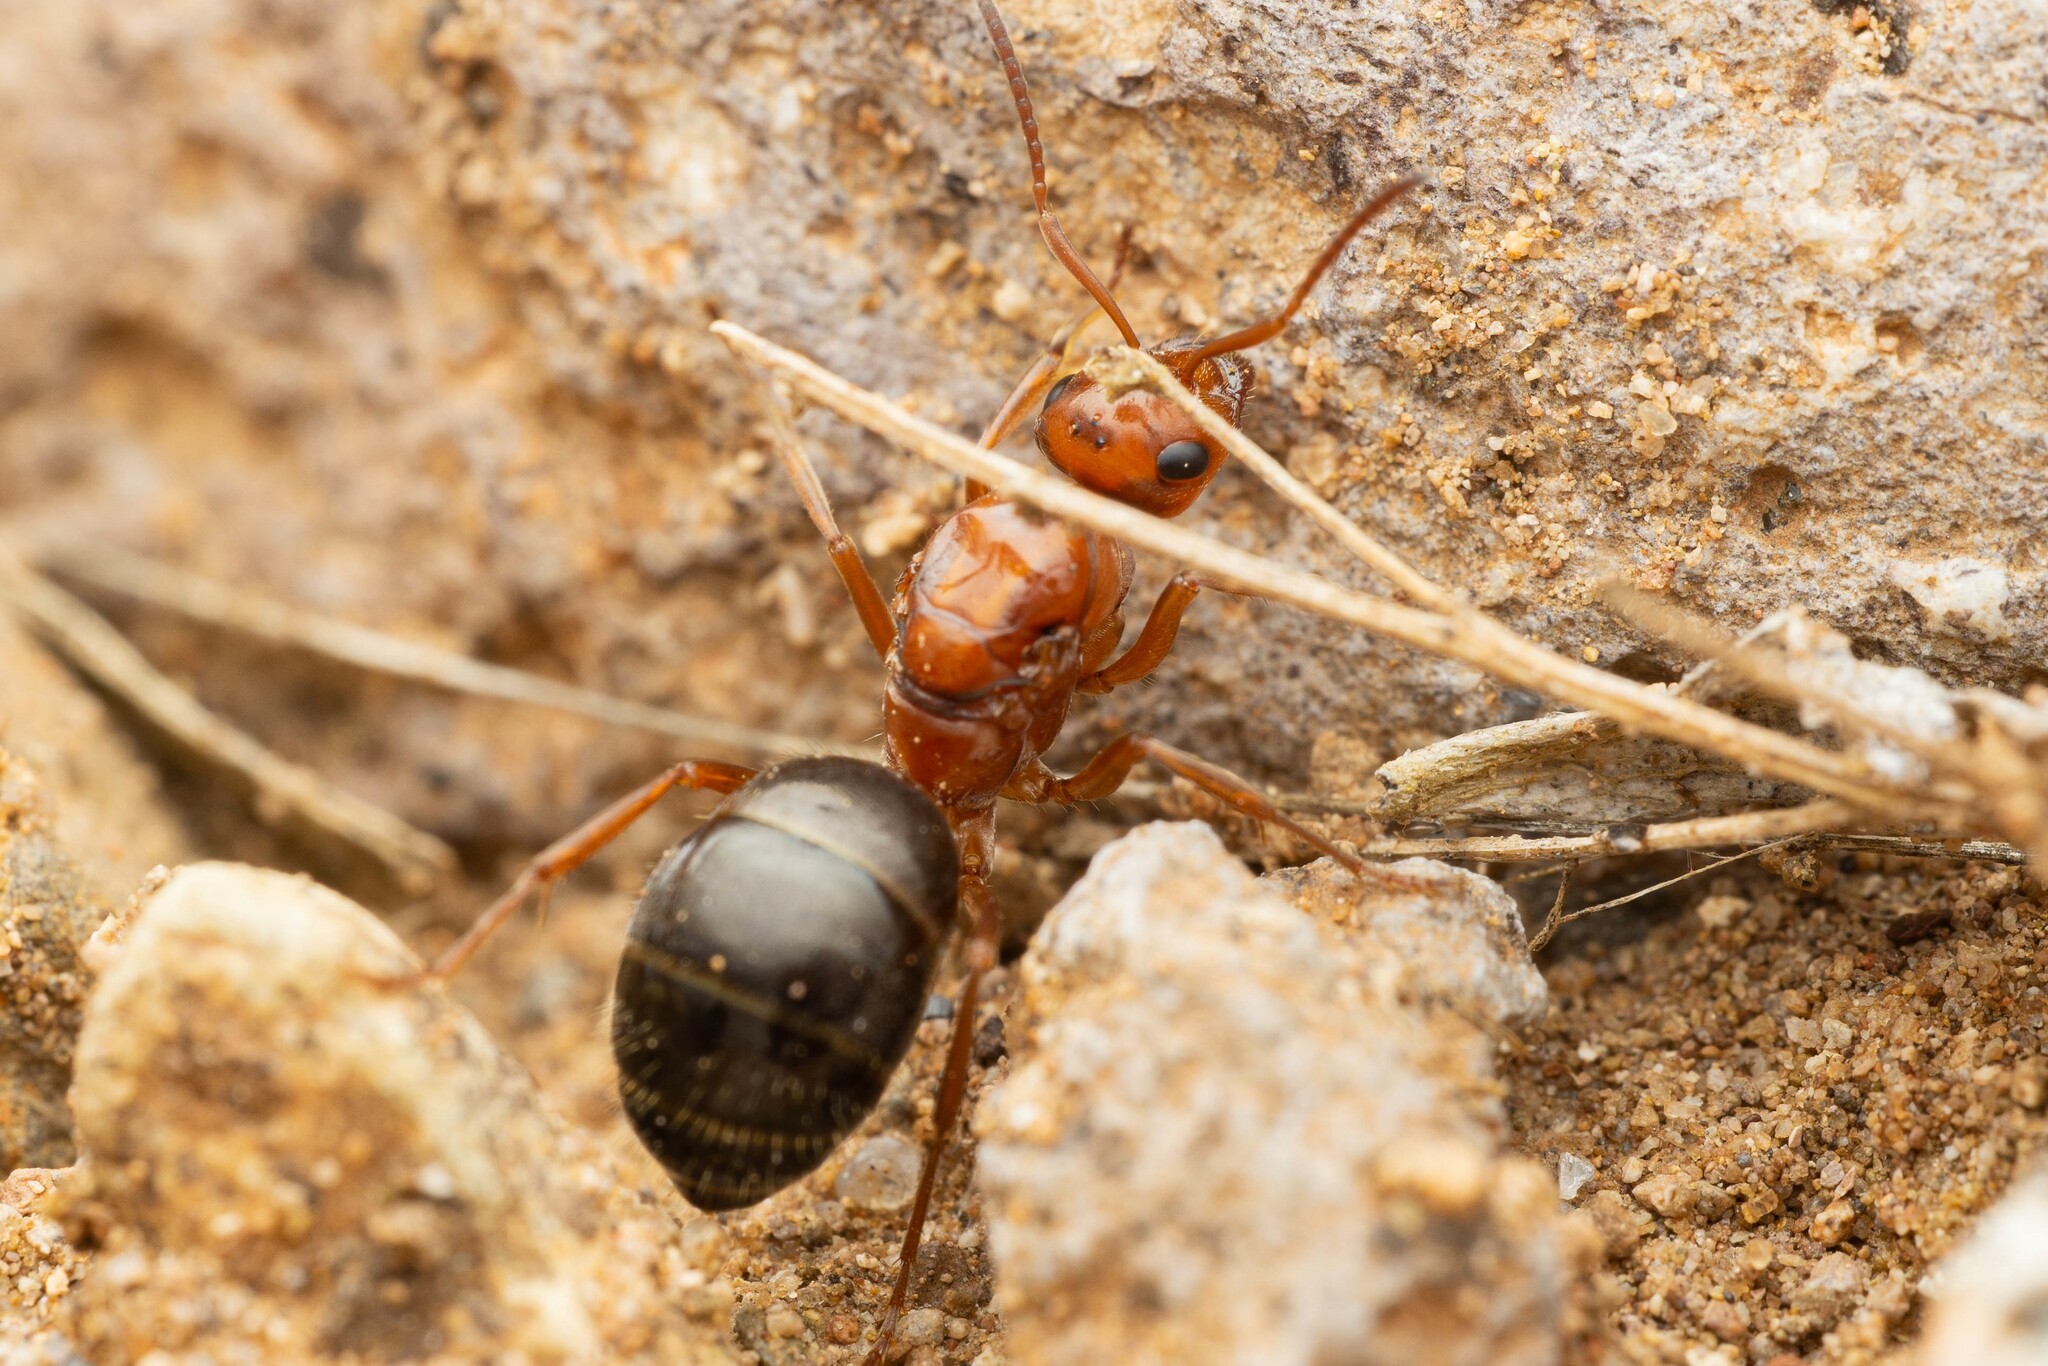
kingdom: Animalia
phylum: Arthropoda
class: Insecta
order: Hymenoptera
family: Formicidae
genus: Formica
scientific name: Formica perpilosa
